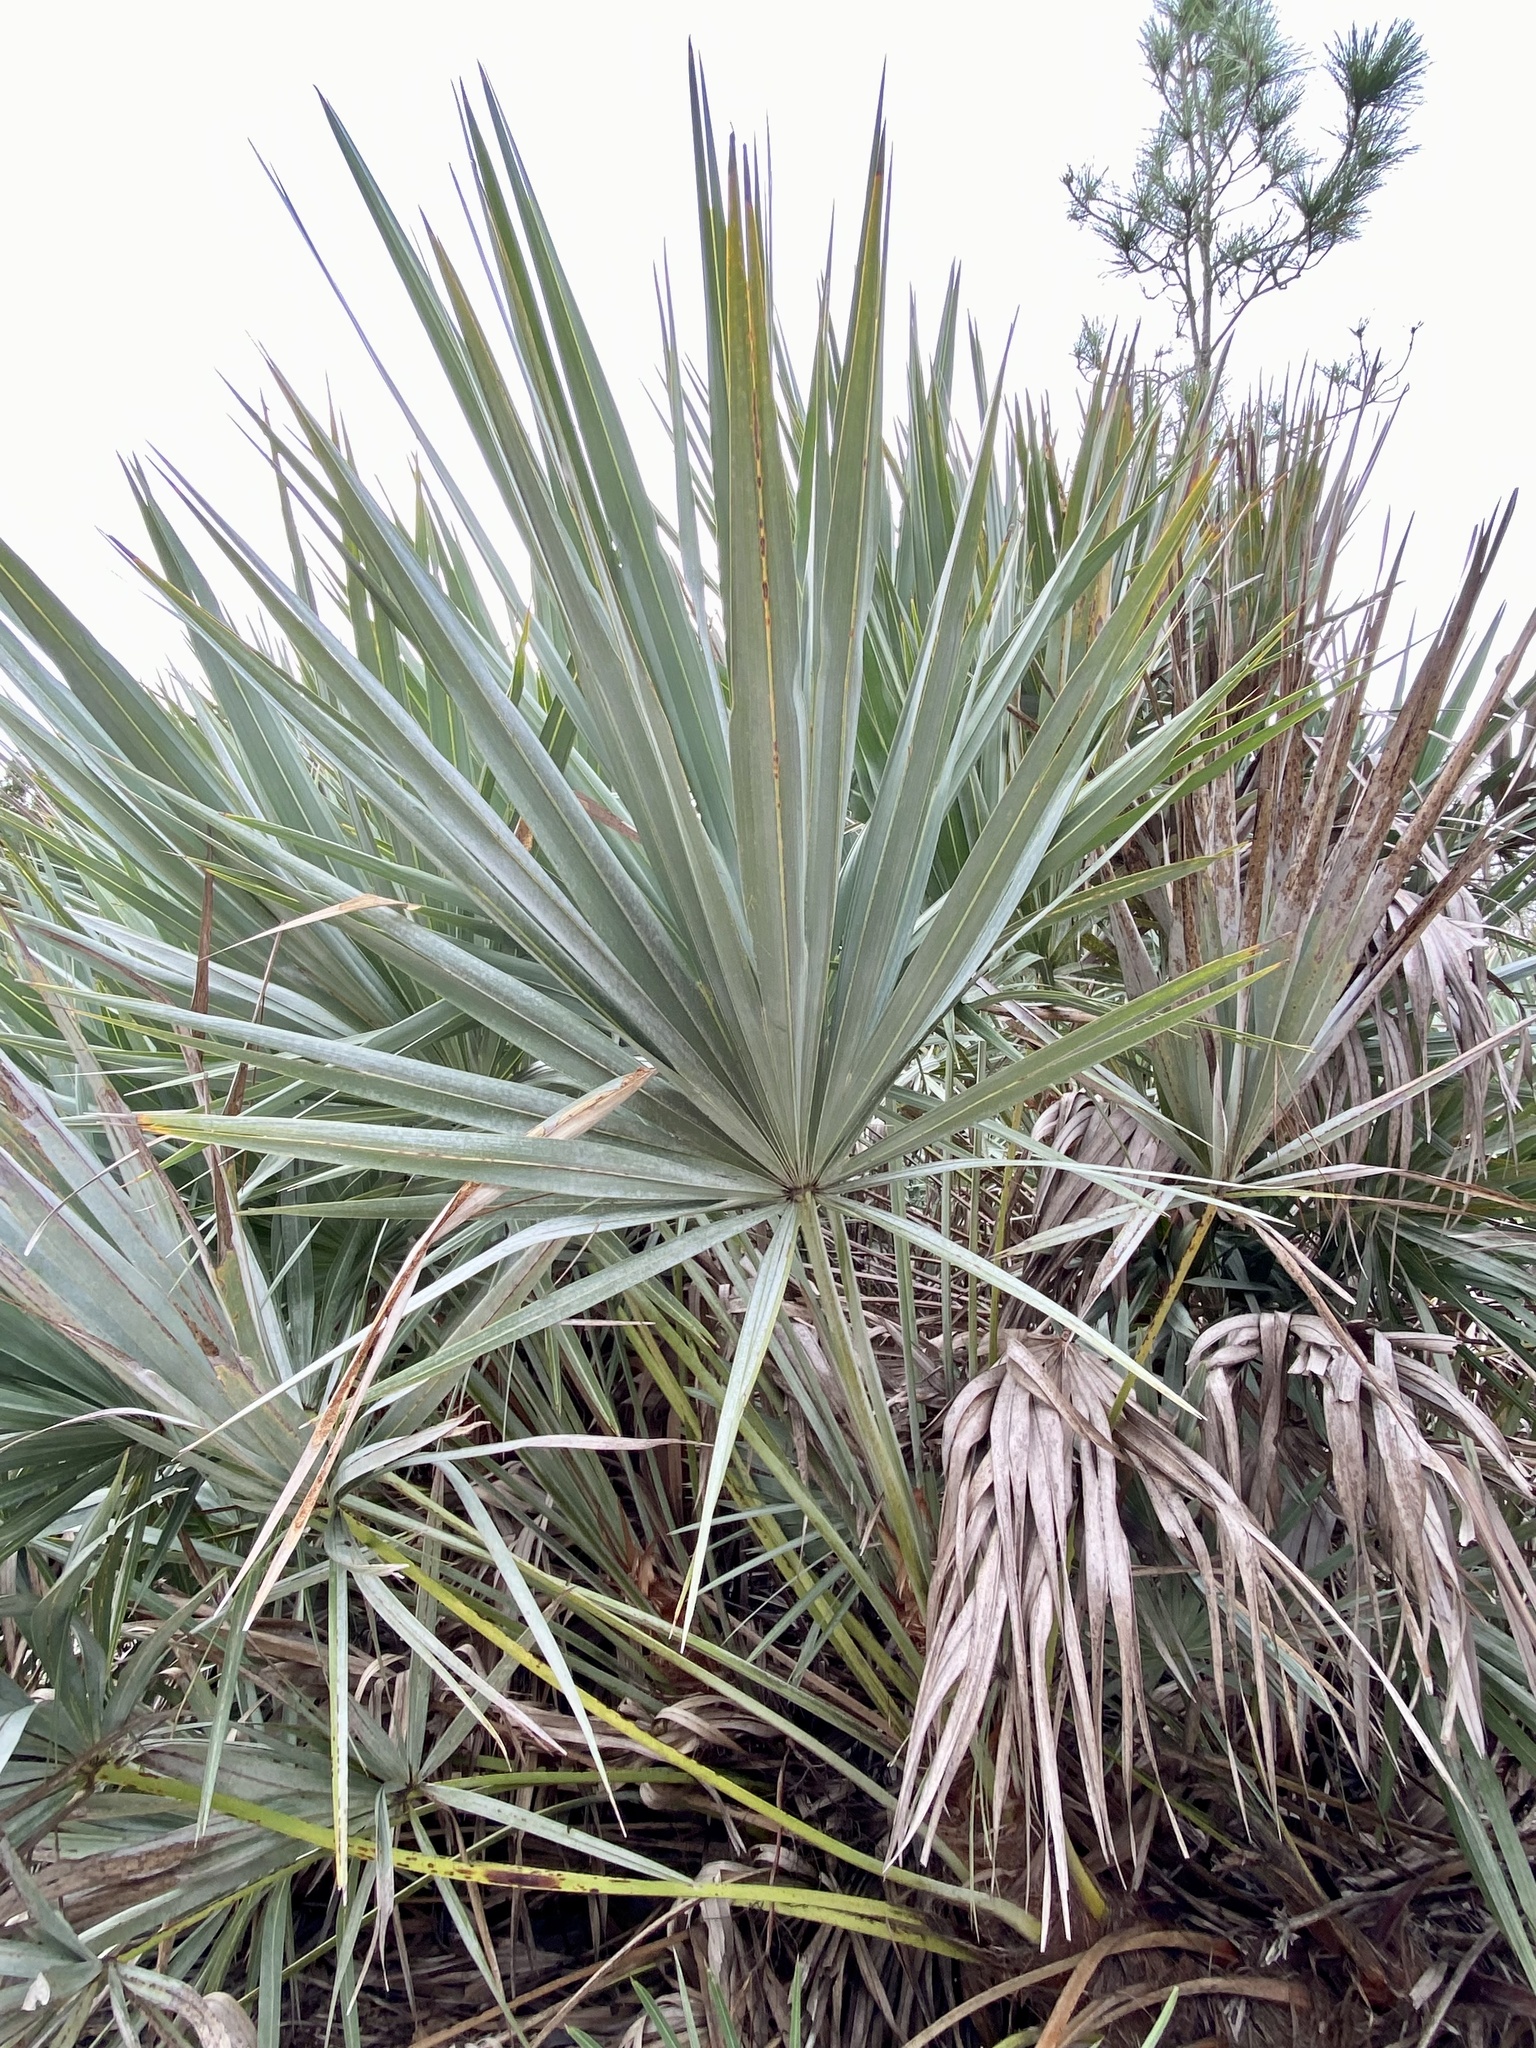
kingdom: Plantae
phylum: Tracheophyta
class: Liliopsida
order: Arecales
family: Arecaceae
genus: Serenoa
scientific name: Serenoa repens
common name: Saw-palmetto
